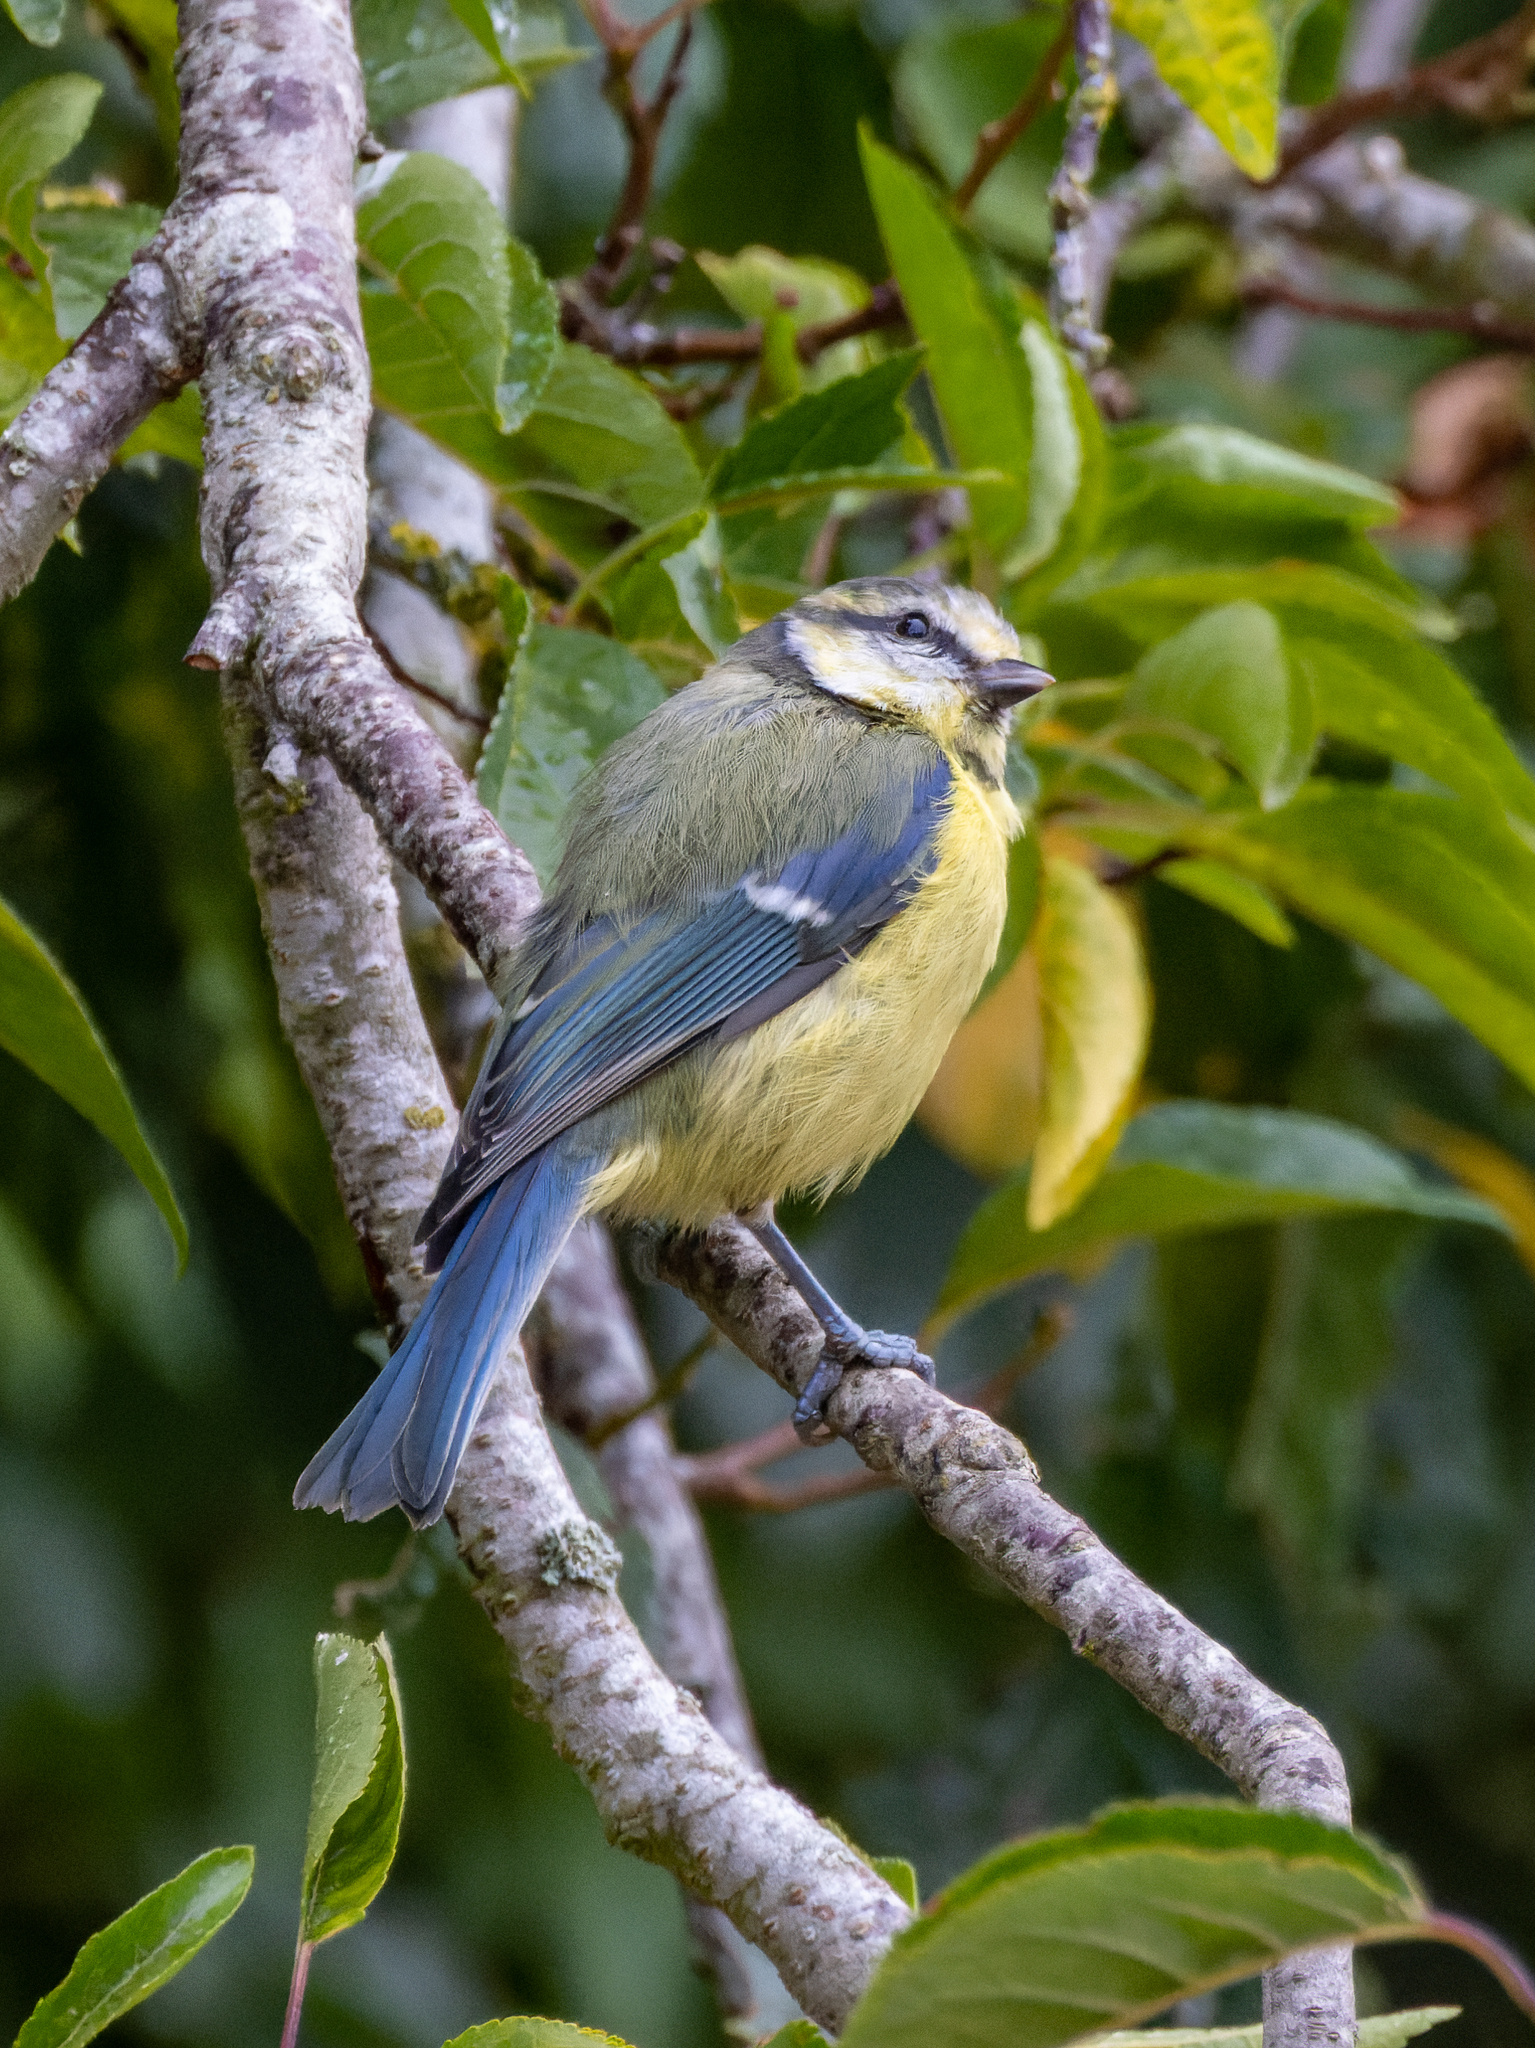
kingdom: Animalia
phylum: Chordata
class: Aves
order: Passeriformes
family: Paridae
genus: Cyanistes
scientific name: Cyanistes caeruleus
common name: Eurasian blue tit
